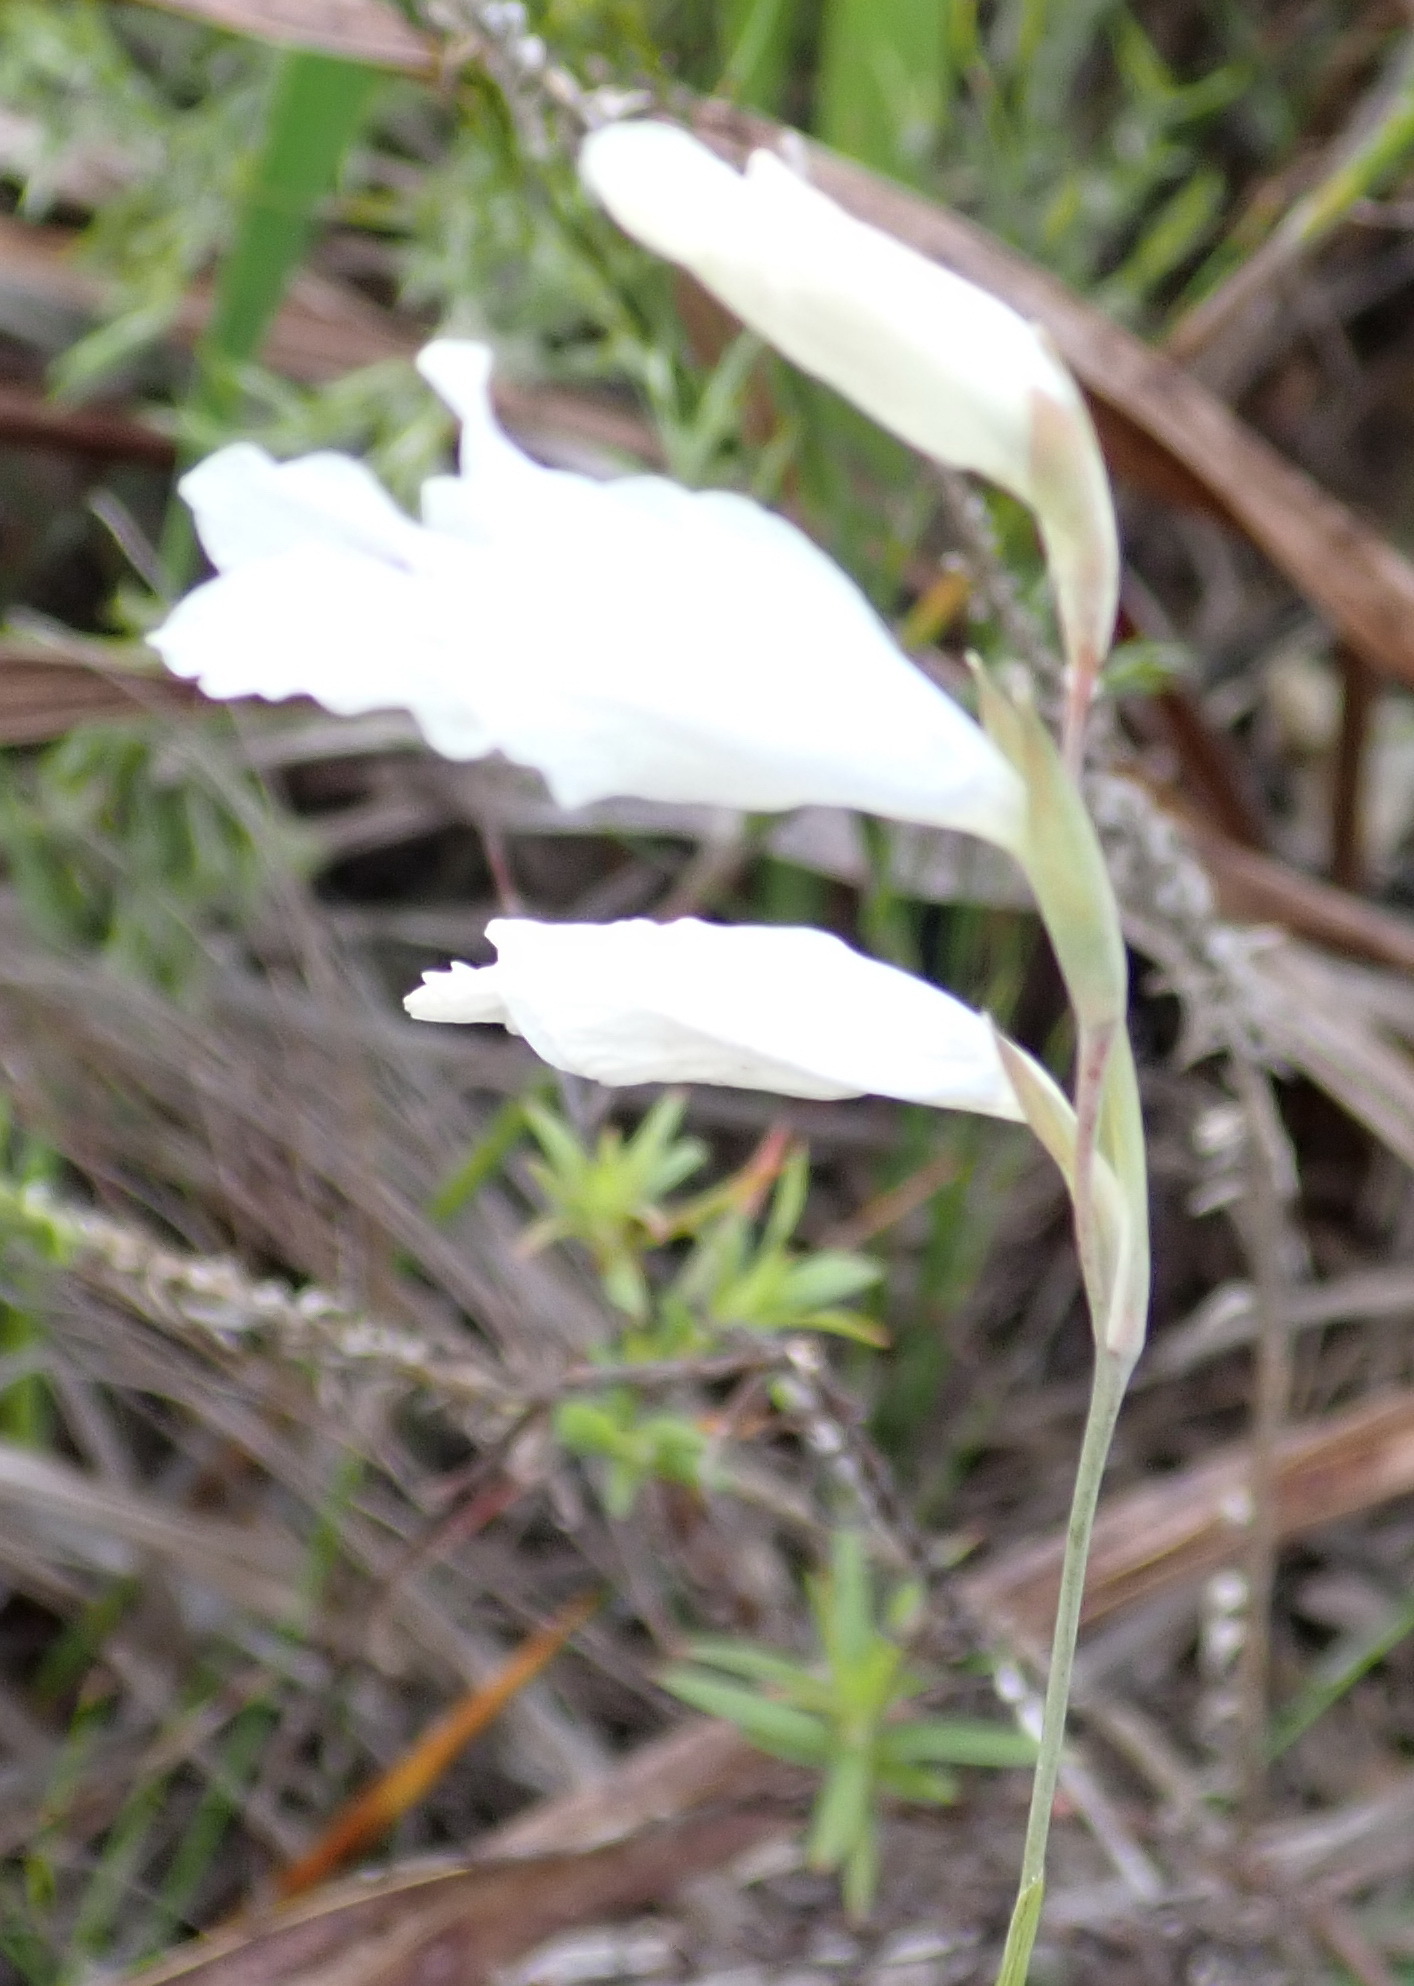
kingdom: Plantae
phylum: Tracheophyta
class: Liliopsida
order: Asparagales
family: Iridaceae
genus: Gladiolus
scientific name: Gladiolus vaginatus
